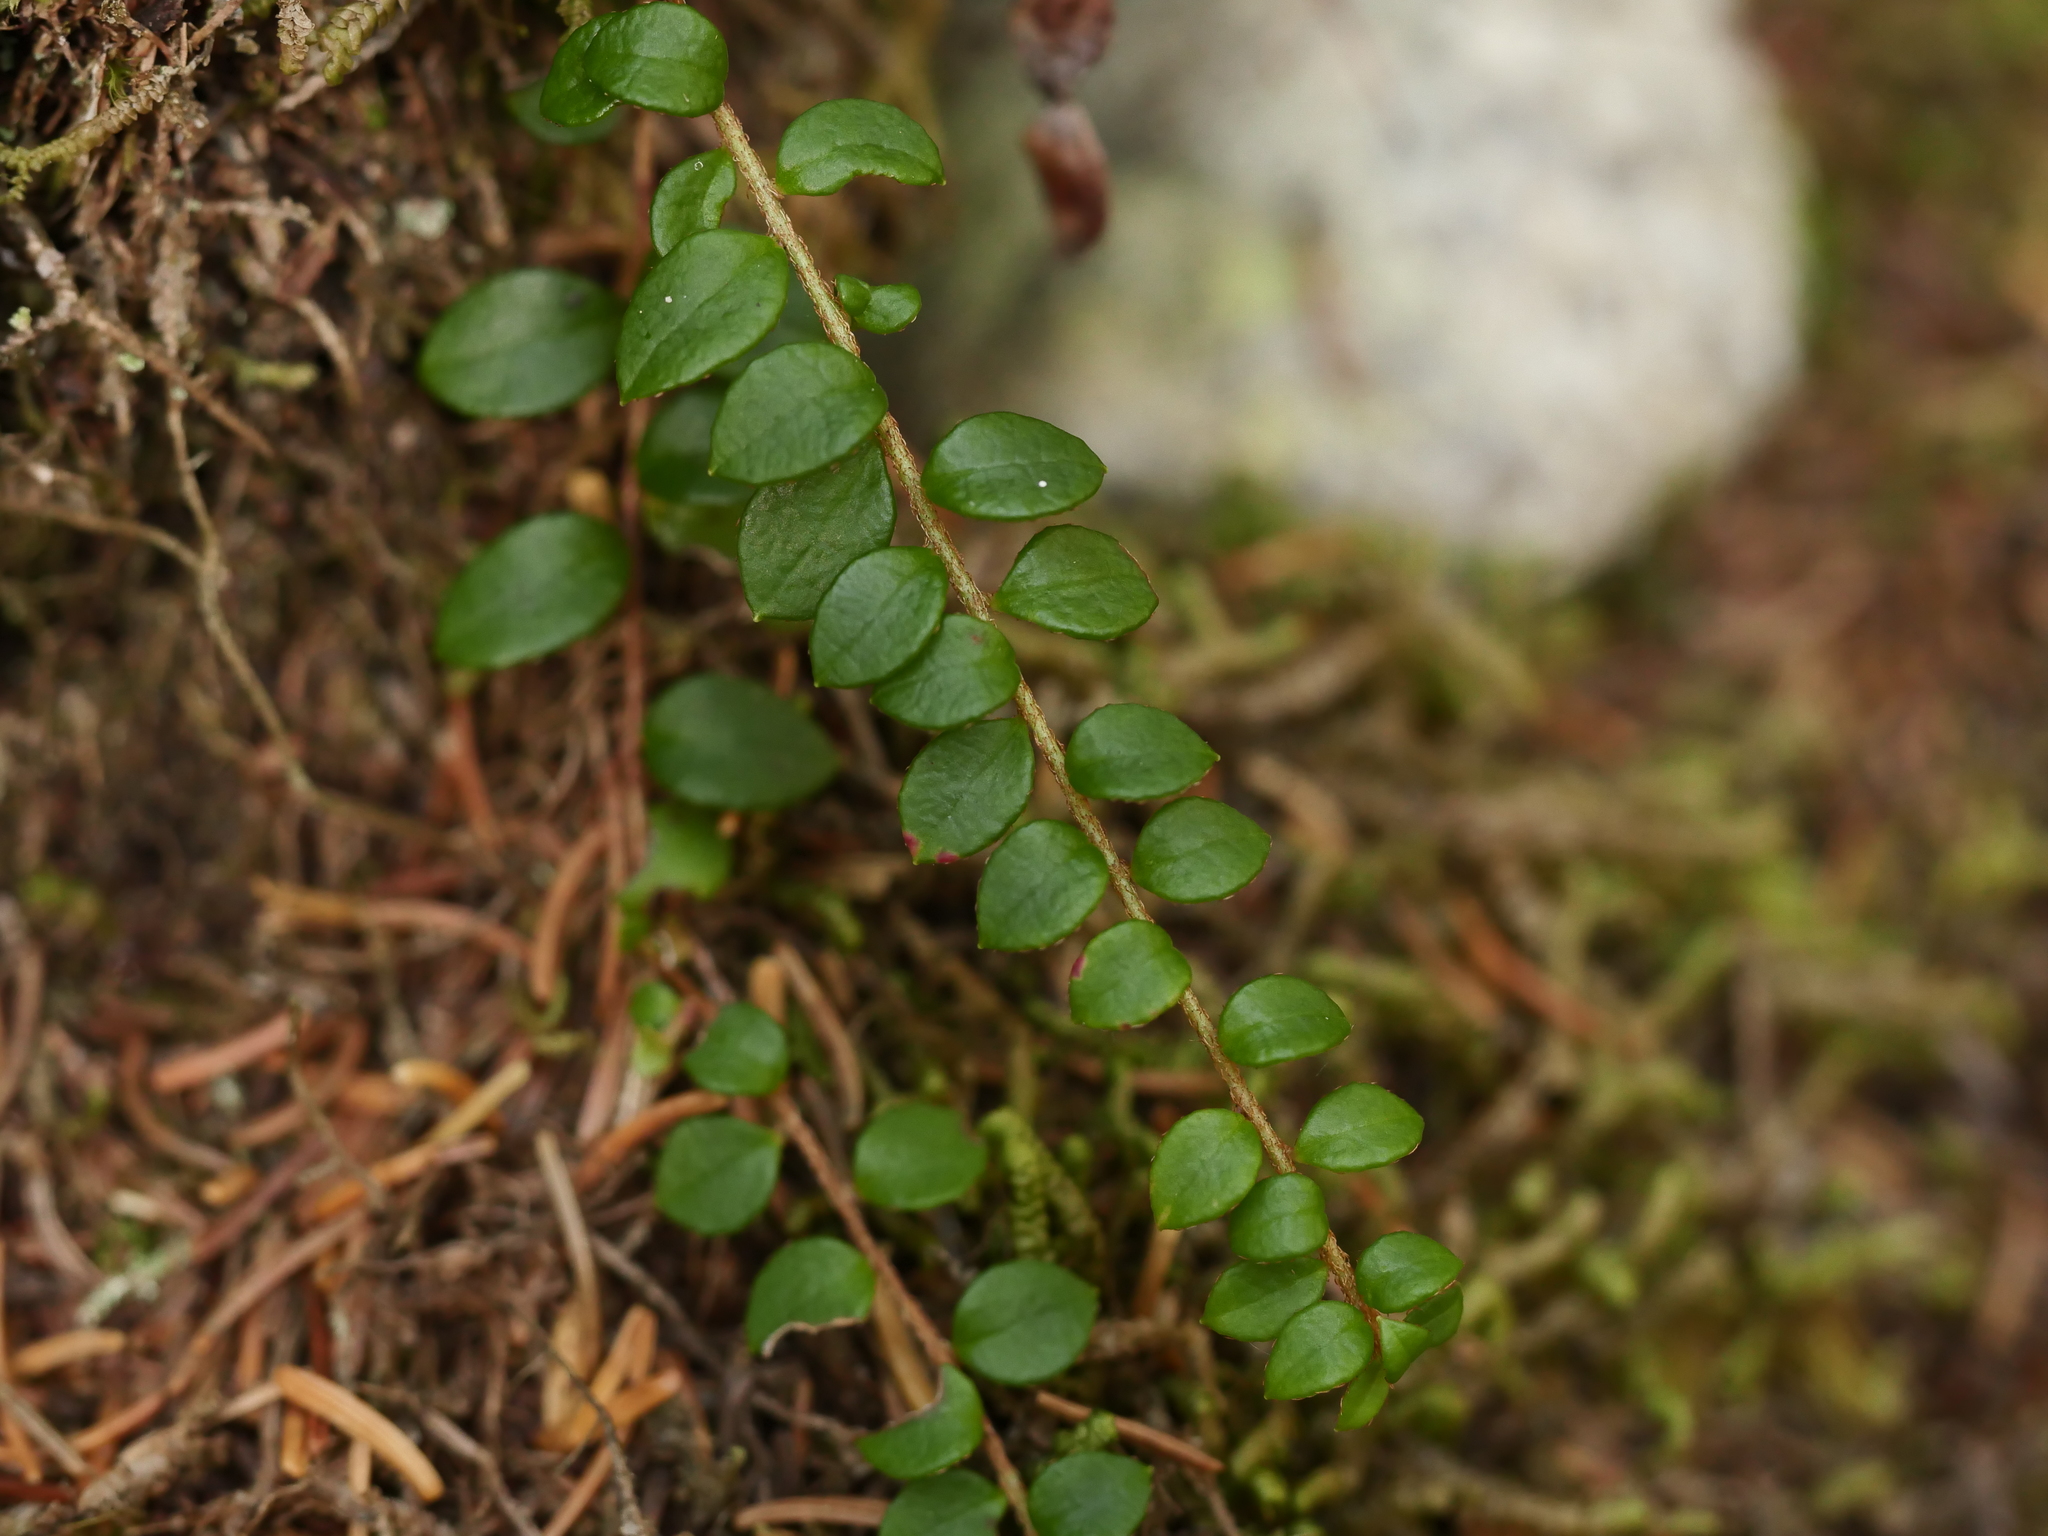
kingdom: Plantae
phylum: Tracheophyta
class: Magnoliopsida
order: Ericales
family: Ericaceae
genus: Gaultheria
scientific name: Gaultheria hispidula
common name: Cancer wintergreen
